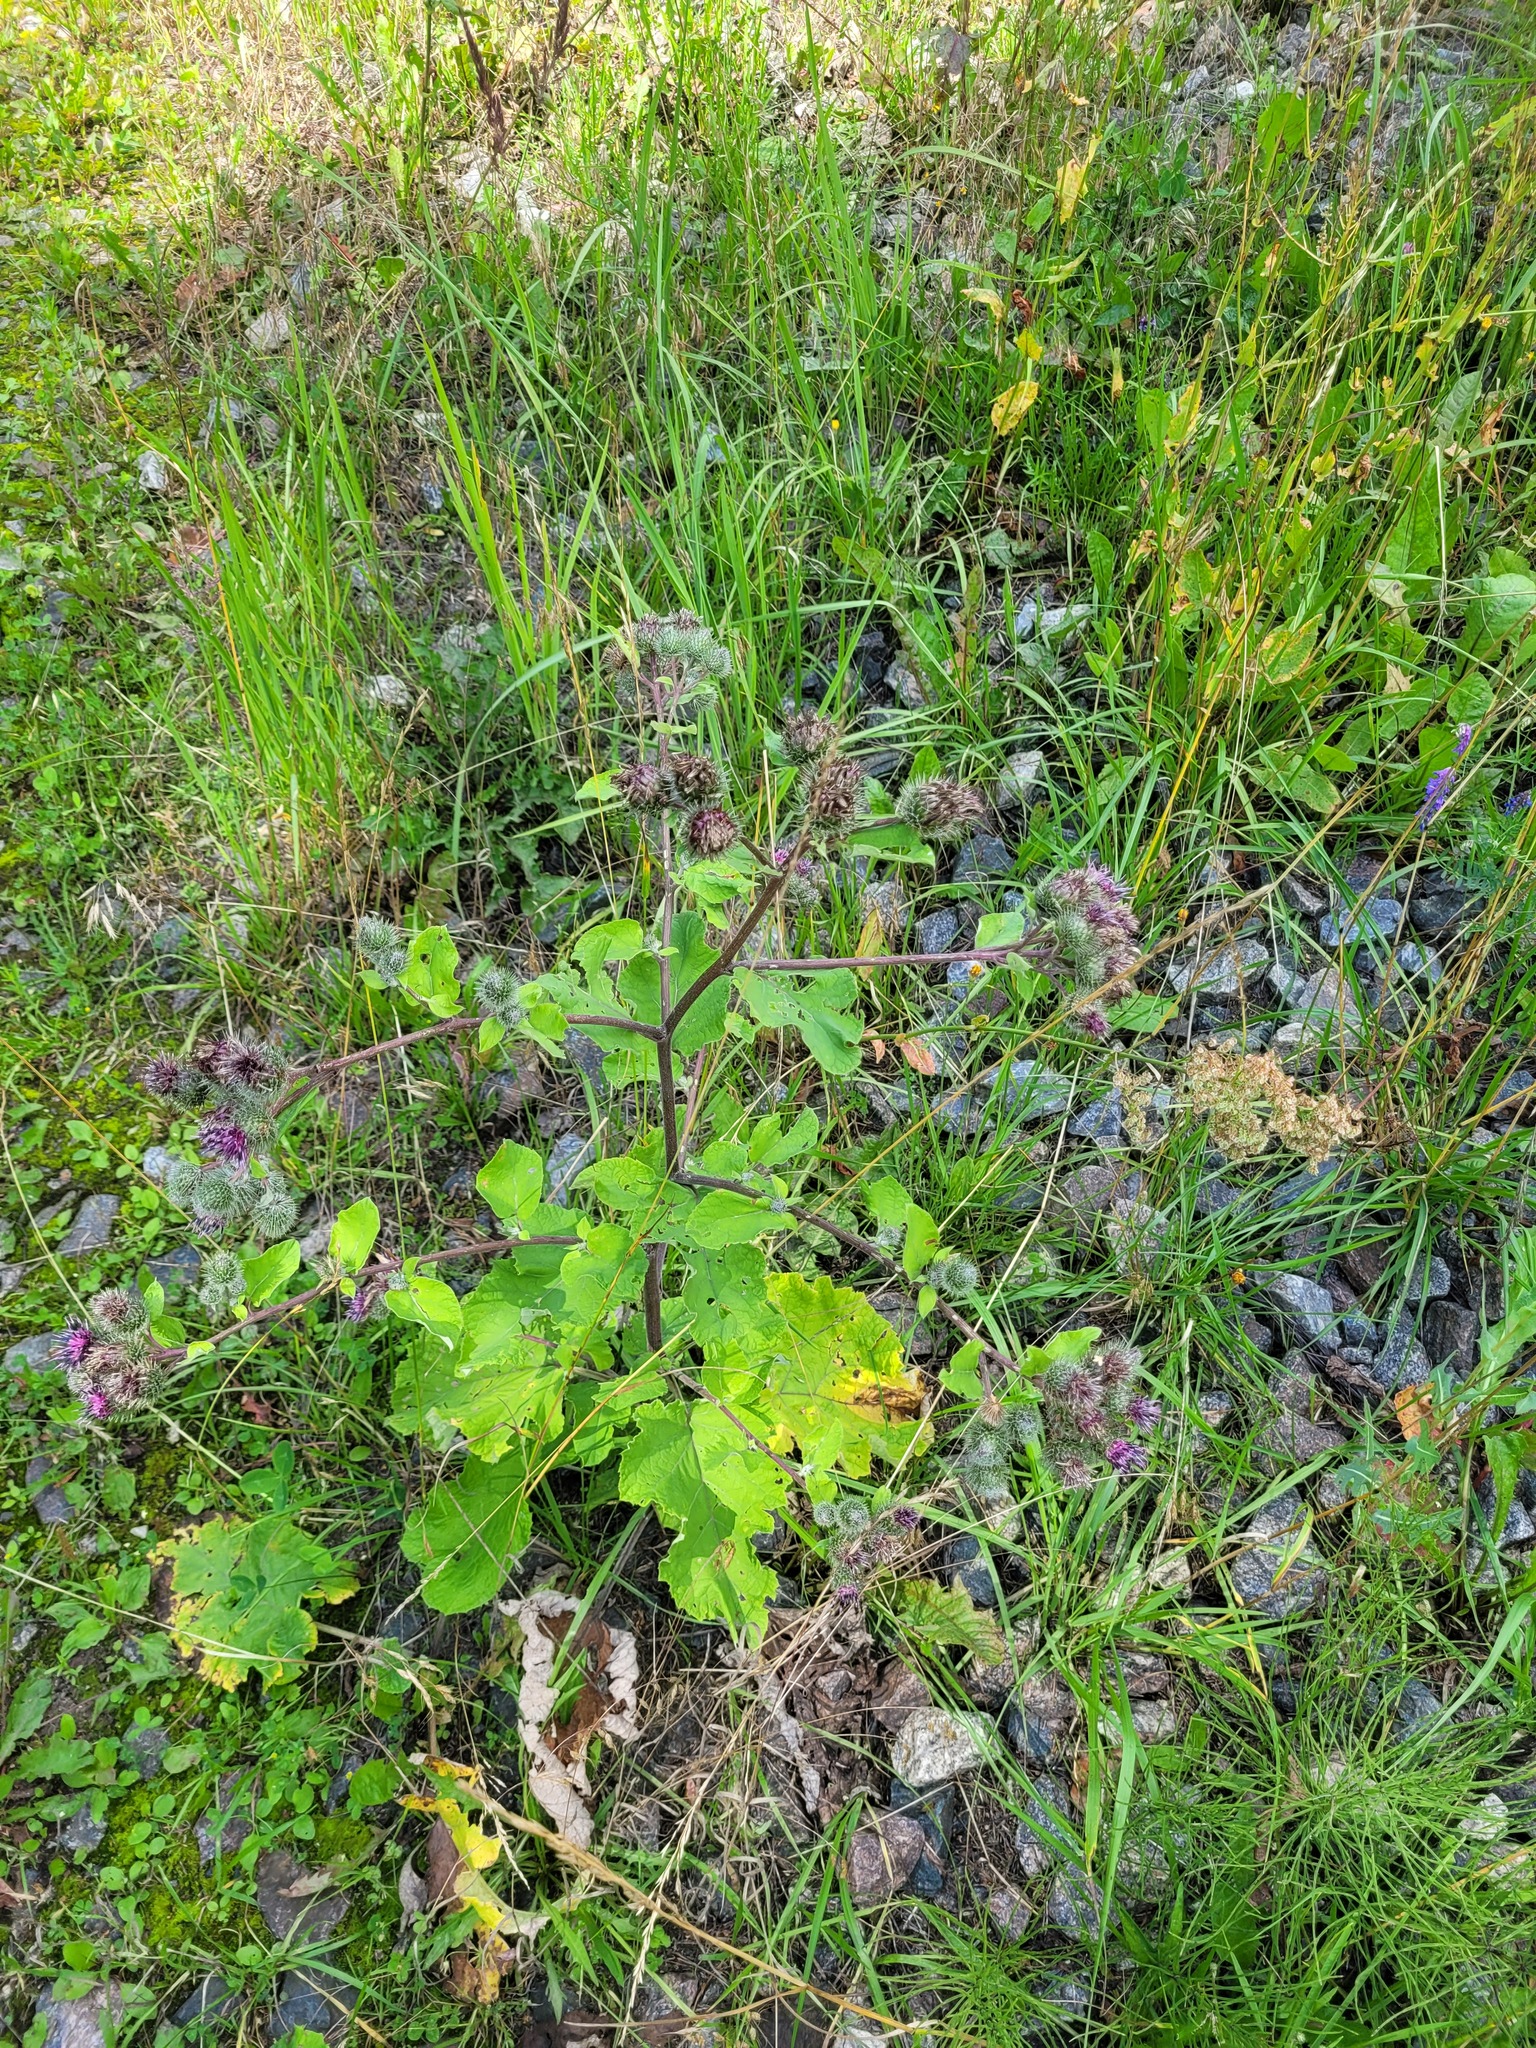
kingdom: Plantae
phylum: Tracheophyta
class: Magnoliopsida
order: Asterales
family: Asteraceae
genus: Arctium
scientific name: Arctium tomentosum
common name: Woolly burdock
